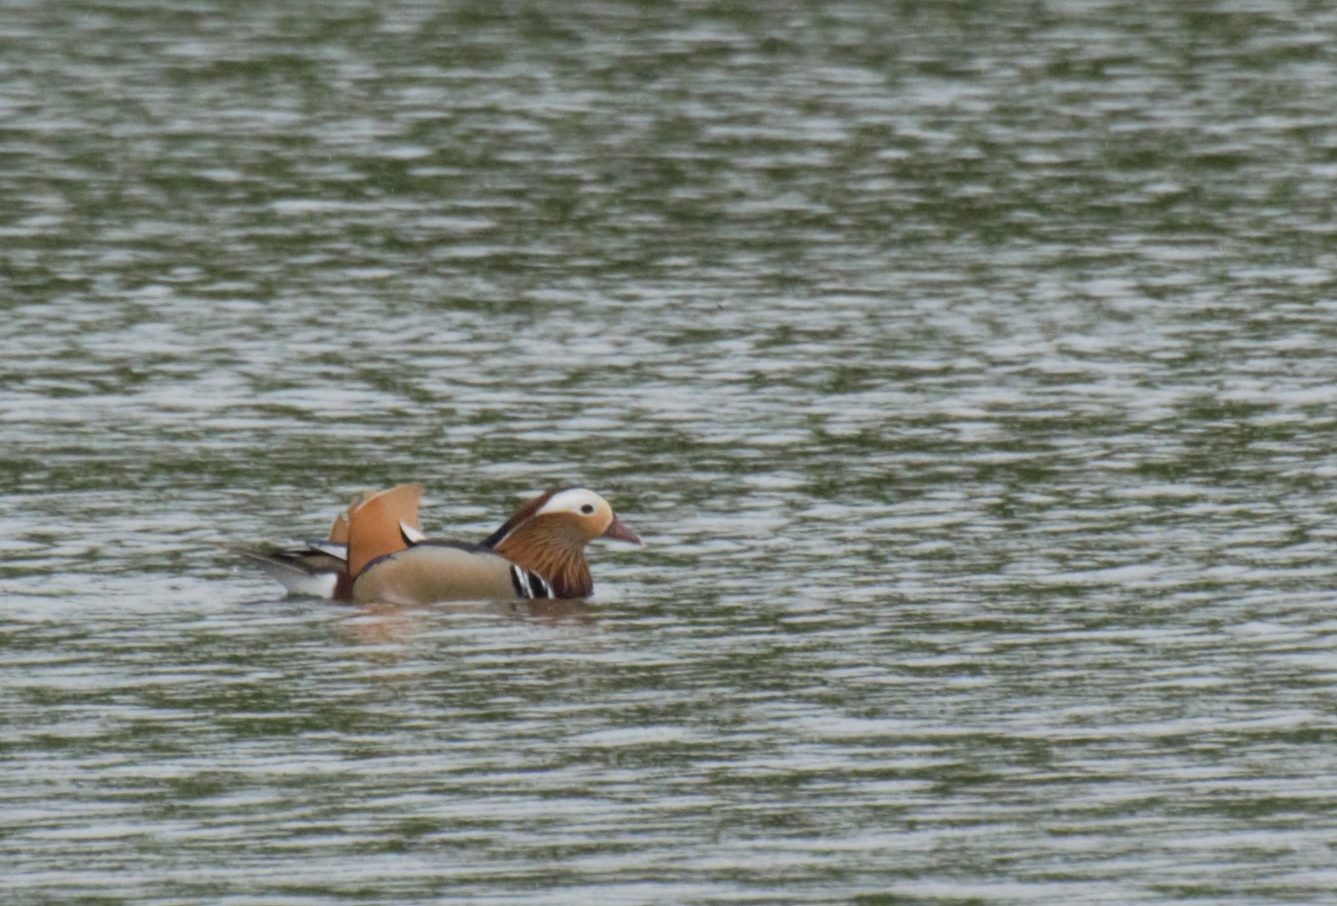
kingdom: Animalia
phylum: Chordata
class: Aves
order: Anseriformes
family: Anatidae
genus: Aix
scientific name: Aix galericulata
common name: Mandarin duck
